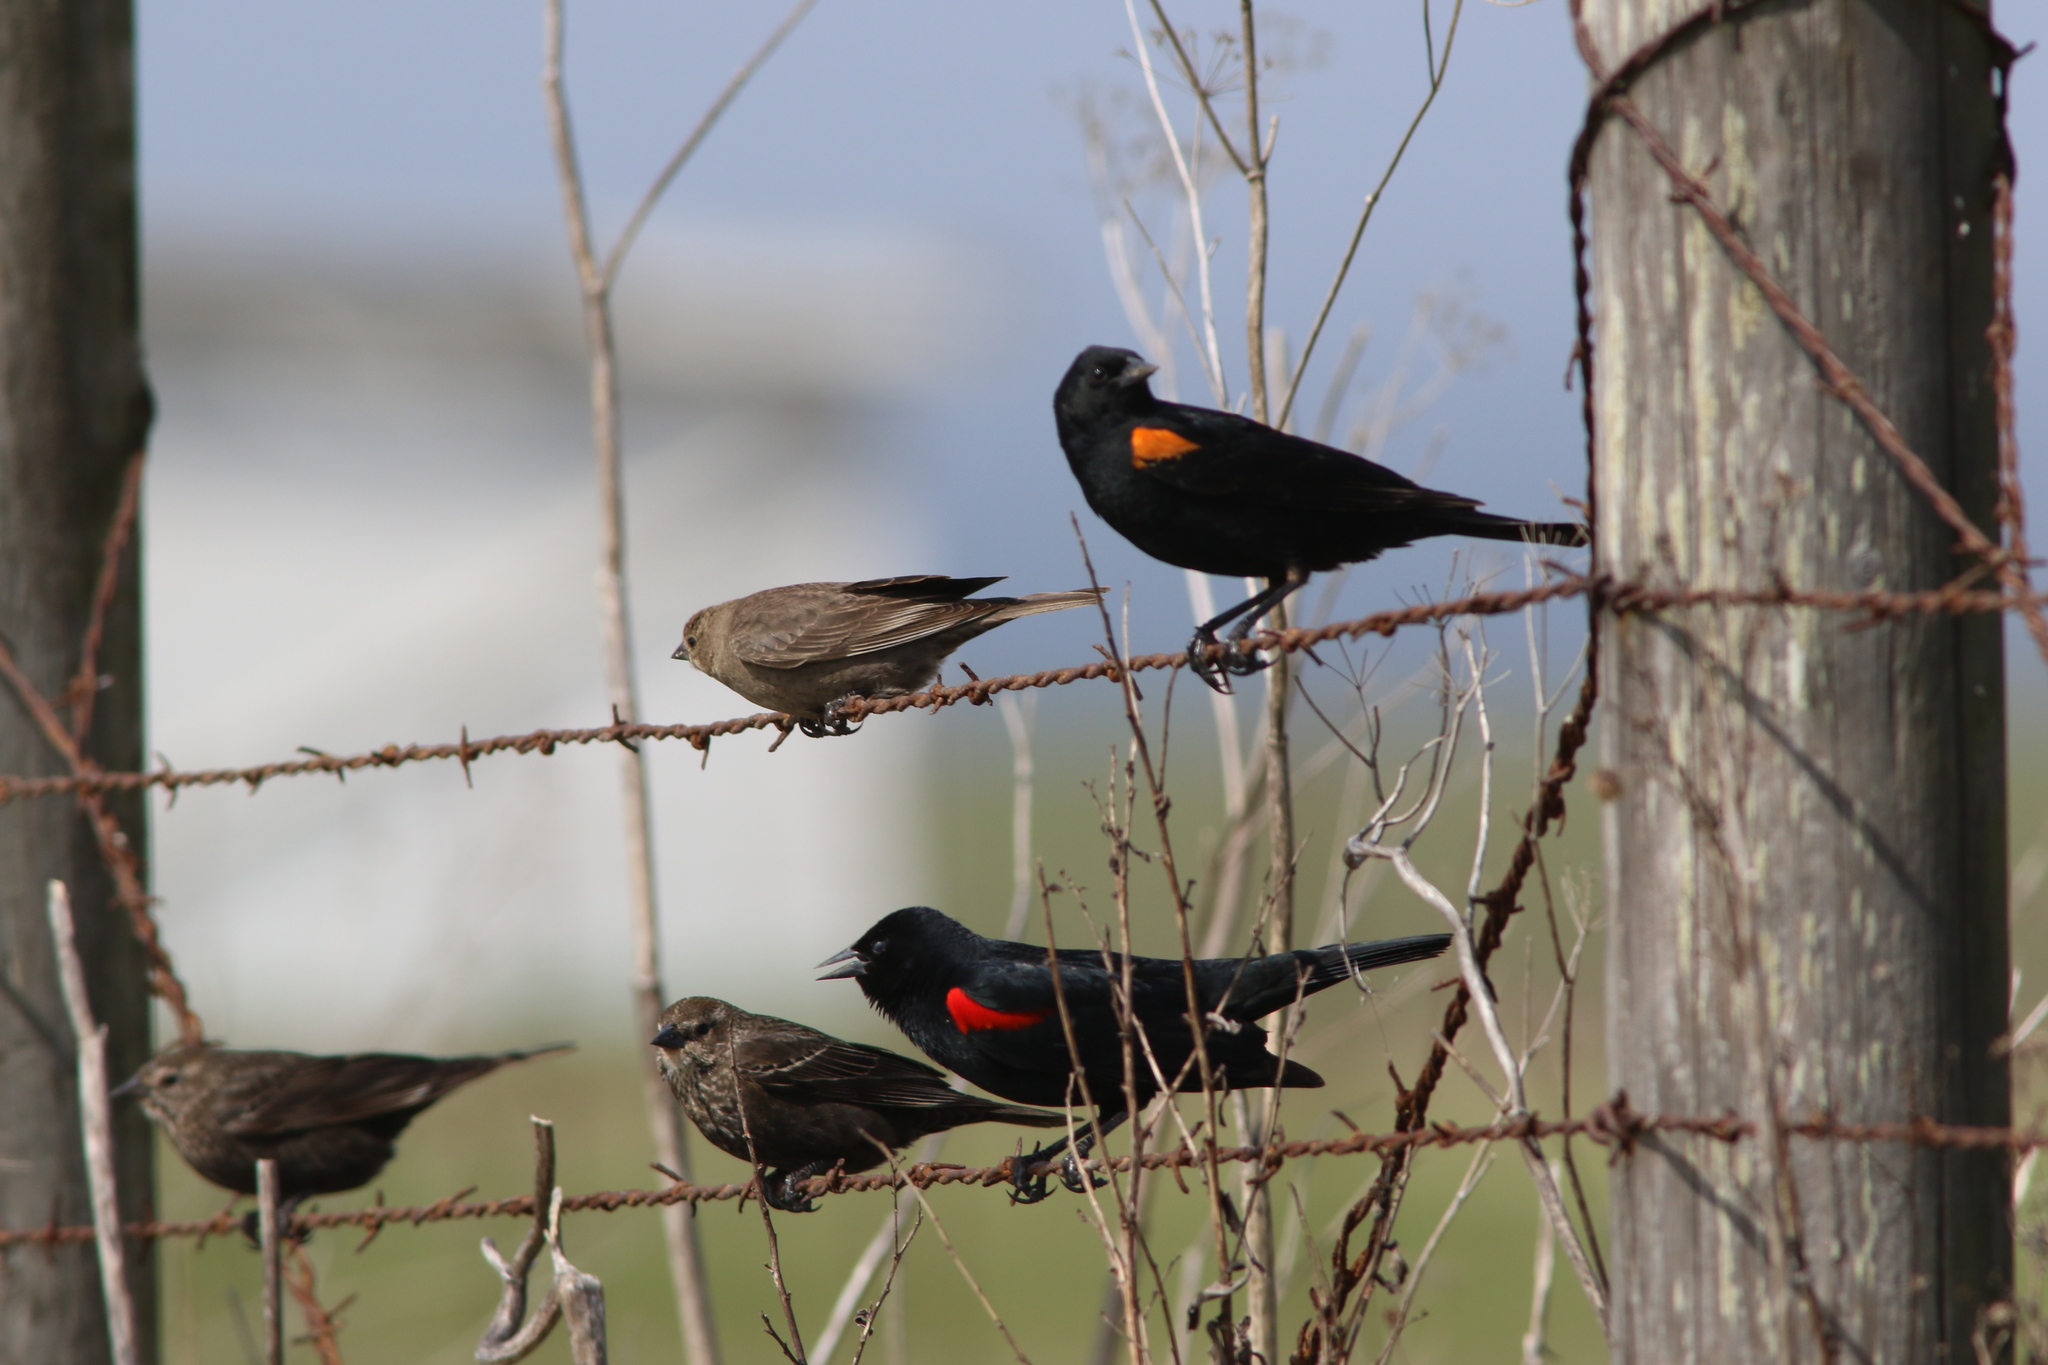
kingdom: Animalia
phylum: Chordata
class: Aves
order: Passeriformes
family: Icteridae
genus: Agelaius
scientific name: Agelaius phoeniceus
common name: Red-winged blackbird
